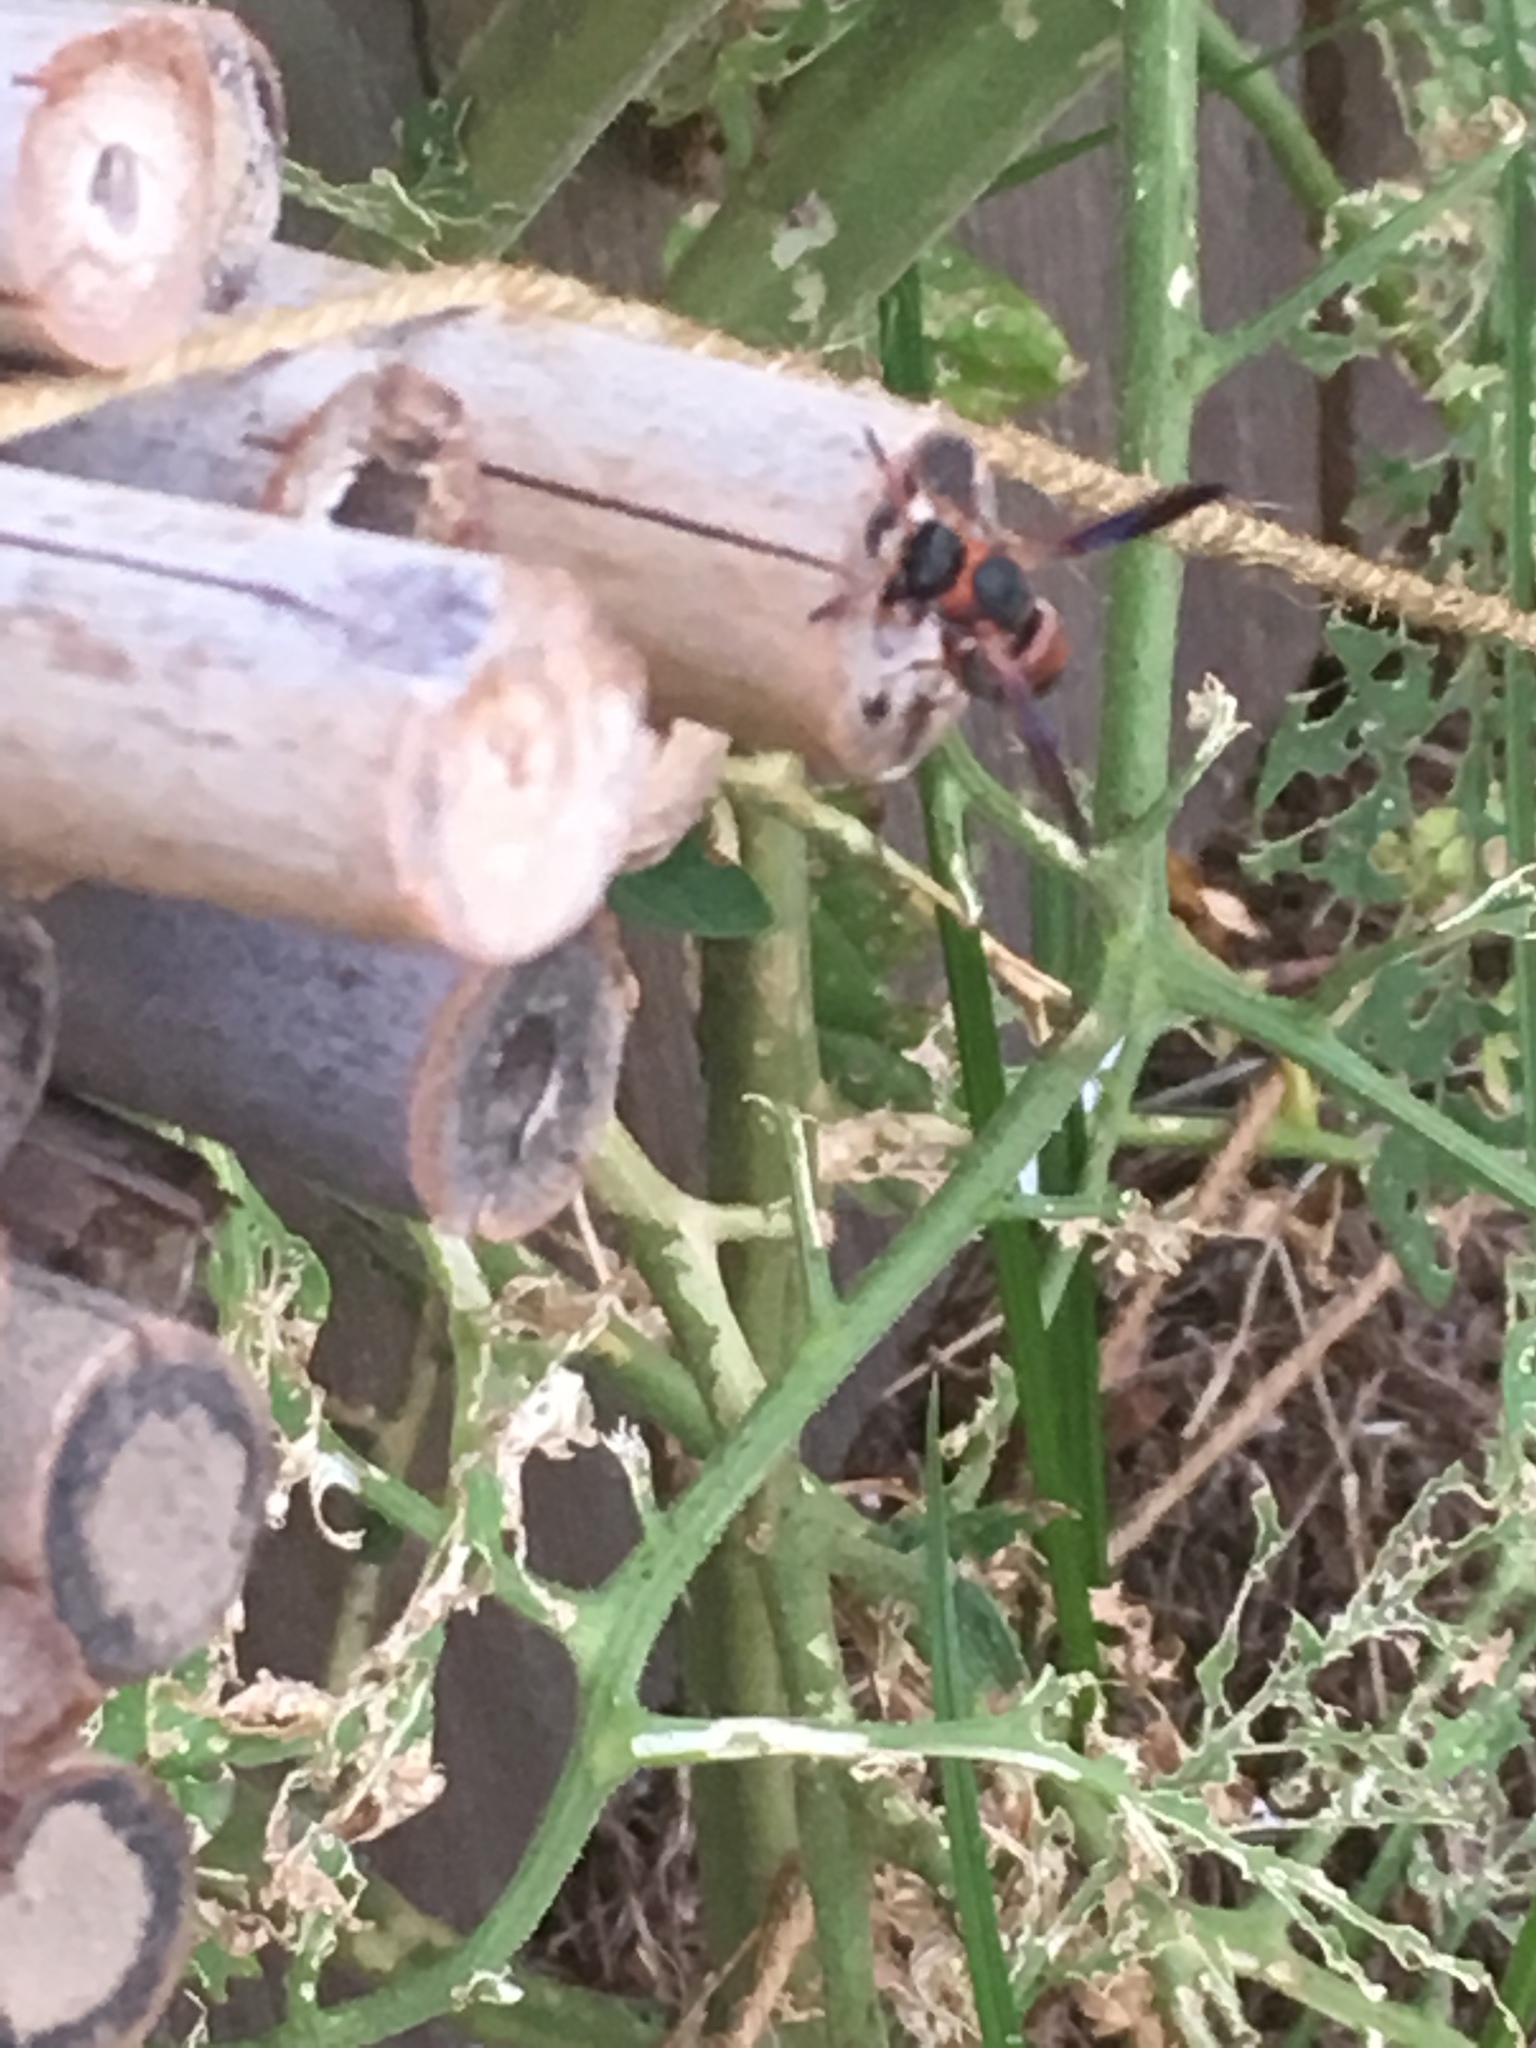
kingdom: Animalia
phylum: Arthropoda
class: Insecta
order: Hymenoptera
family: Eumenidae
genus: Pachodynerus
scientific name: Pachodynerus erynnis
